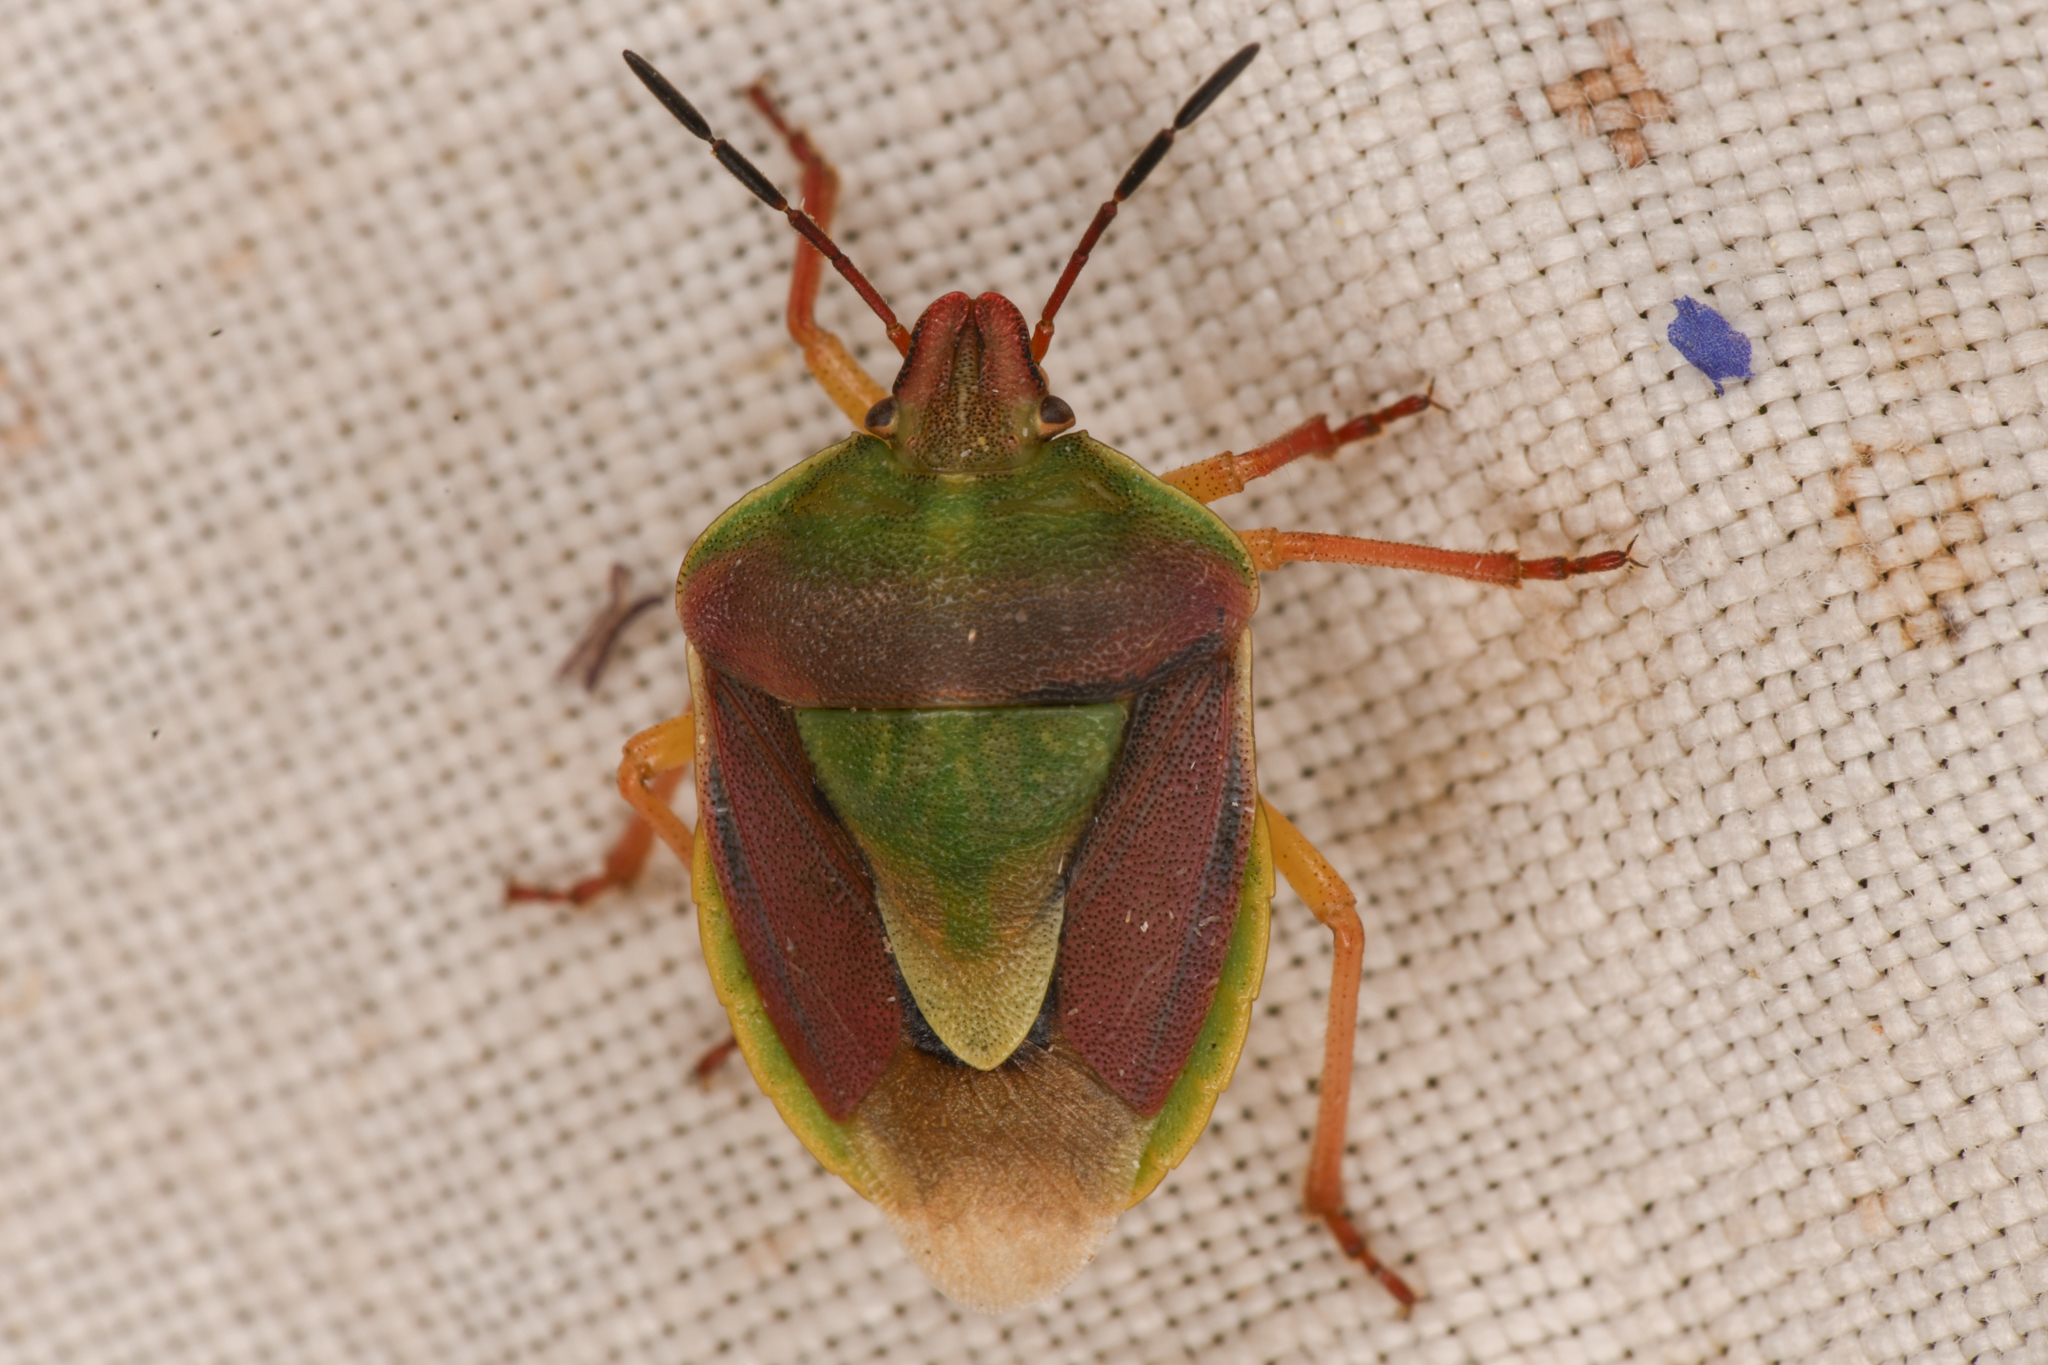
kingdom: Animalia
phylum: Arthropoda
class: Insecta
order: Hemiptera
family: Pentatomidae
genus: Antheminia
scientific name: Antheminia
